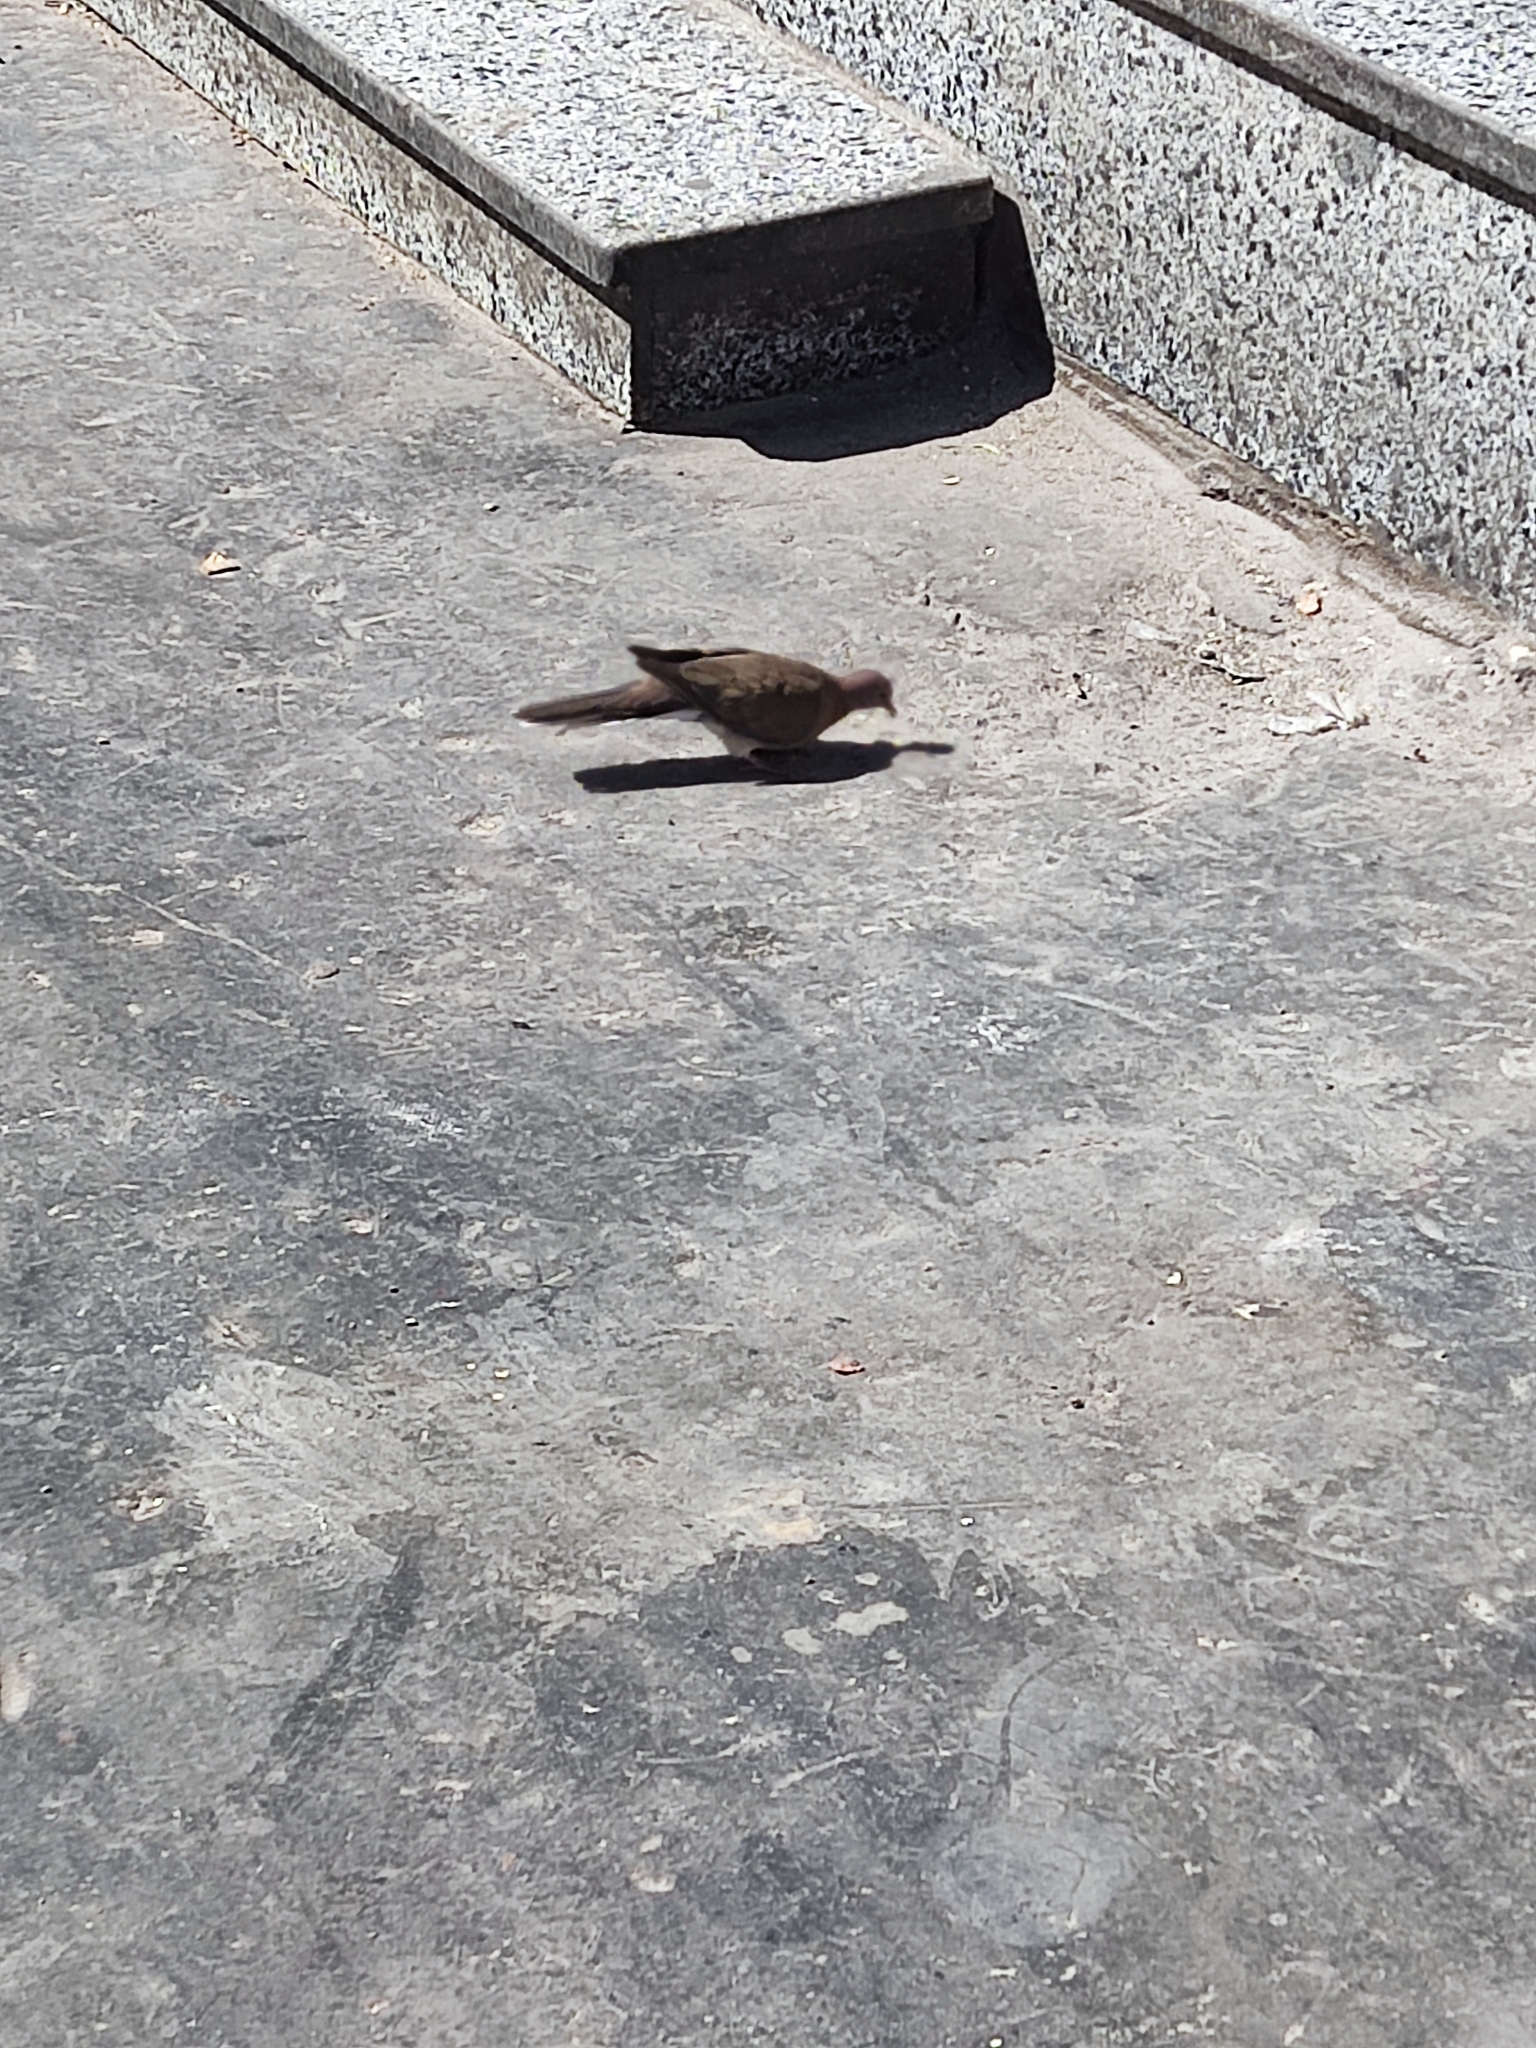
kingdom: Animalia
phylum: Chordata
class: Aves
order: Columbiformes
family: Columbidae
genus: Spilopelia
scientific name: Spilopelia senegalensis
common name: Laughing dove
